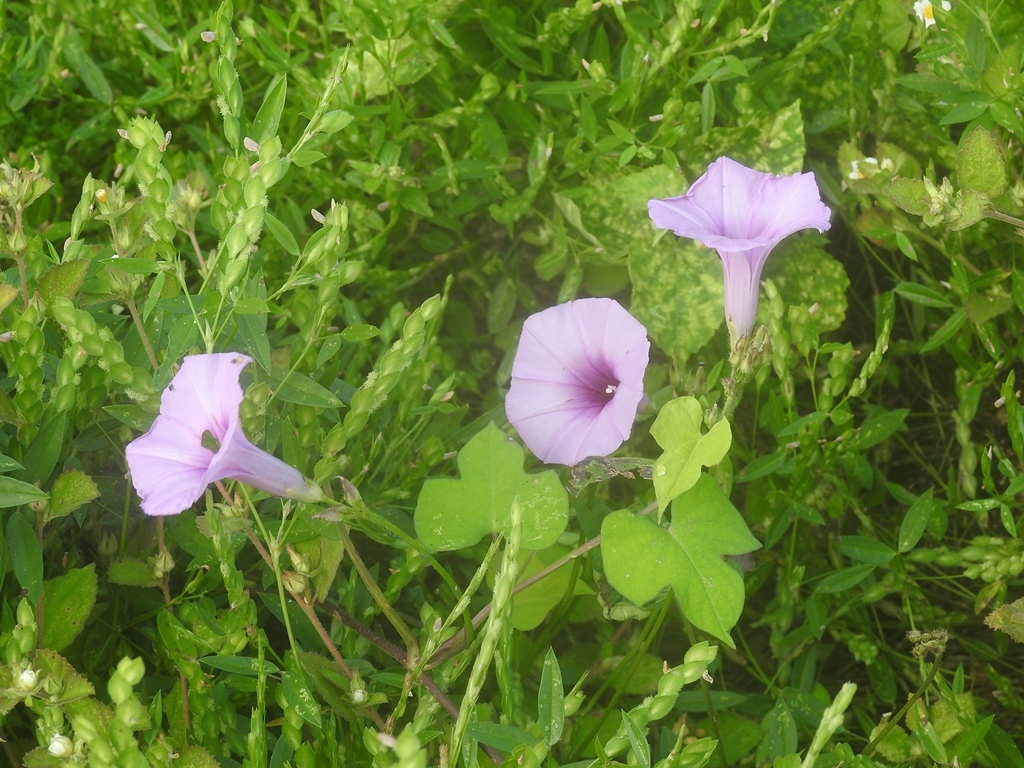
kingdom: Plantae
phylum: Tracheophyta
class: Magnoliopsida
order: Solanales
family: Convolvulaceae
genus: Ipomoea
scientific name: Ipomoea trifida
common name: Cotton morningglory
